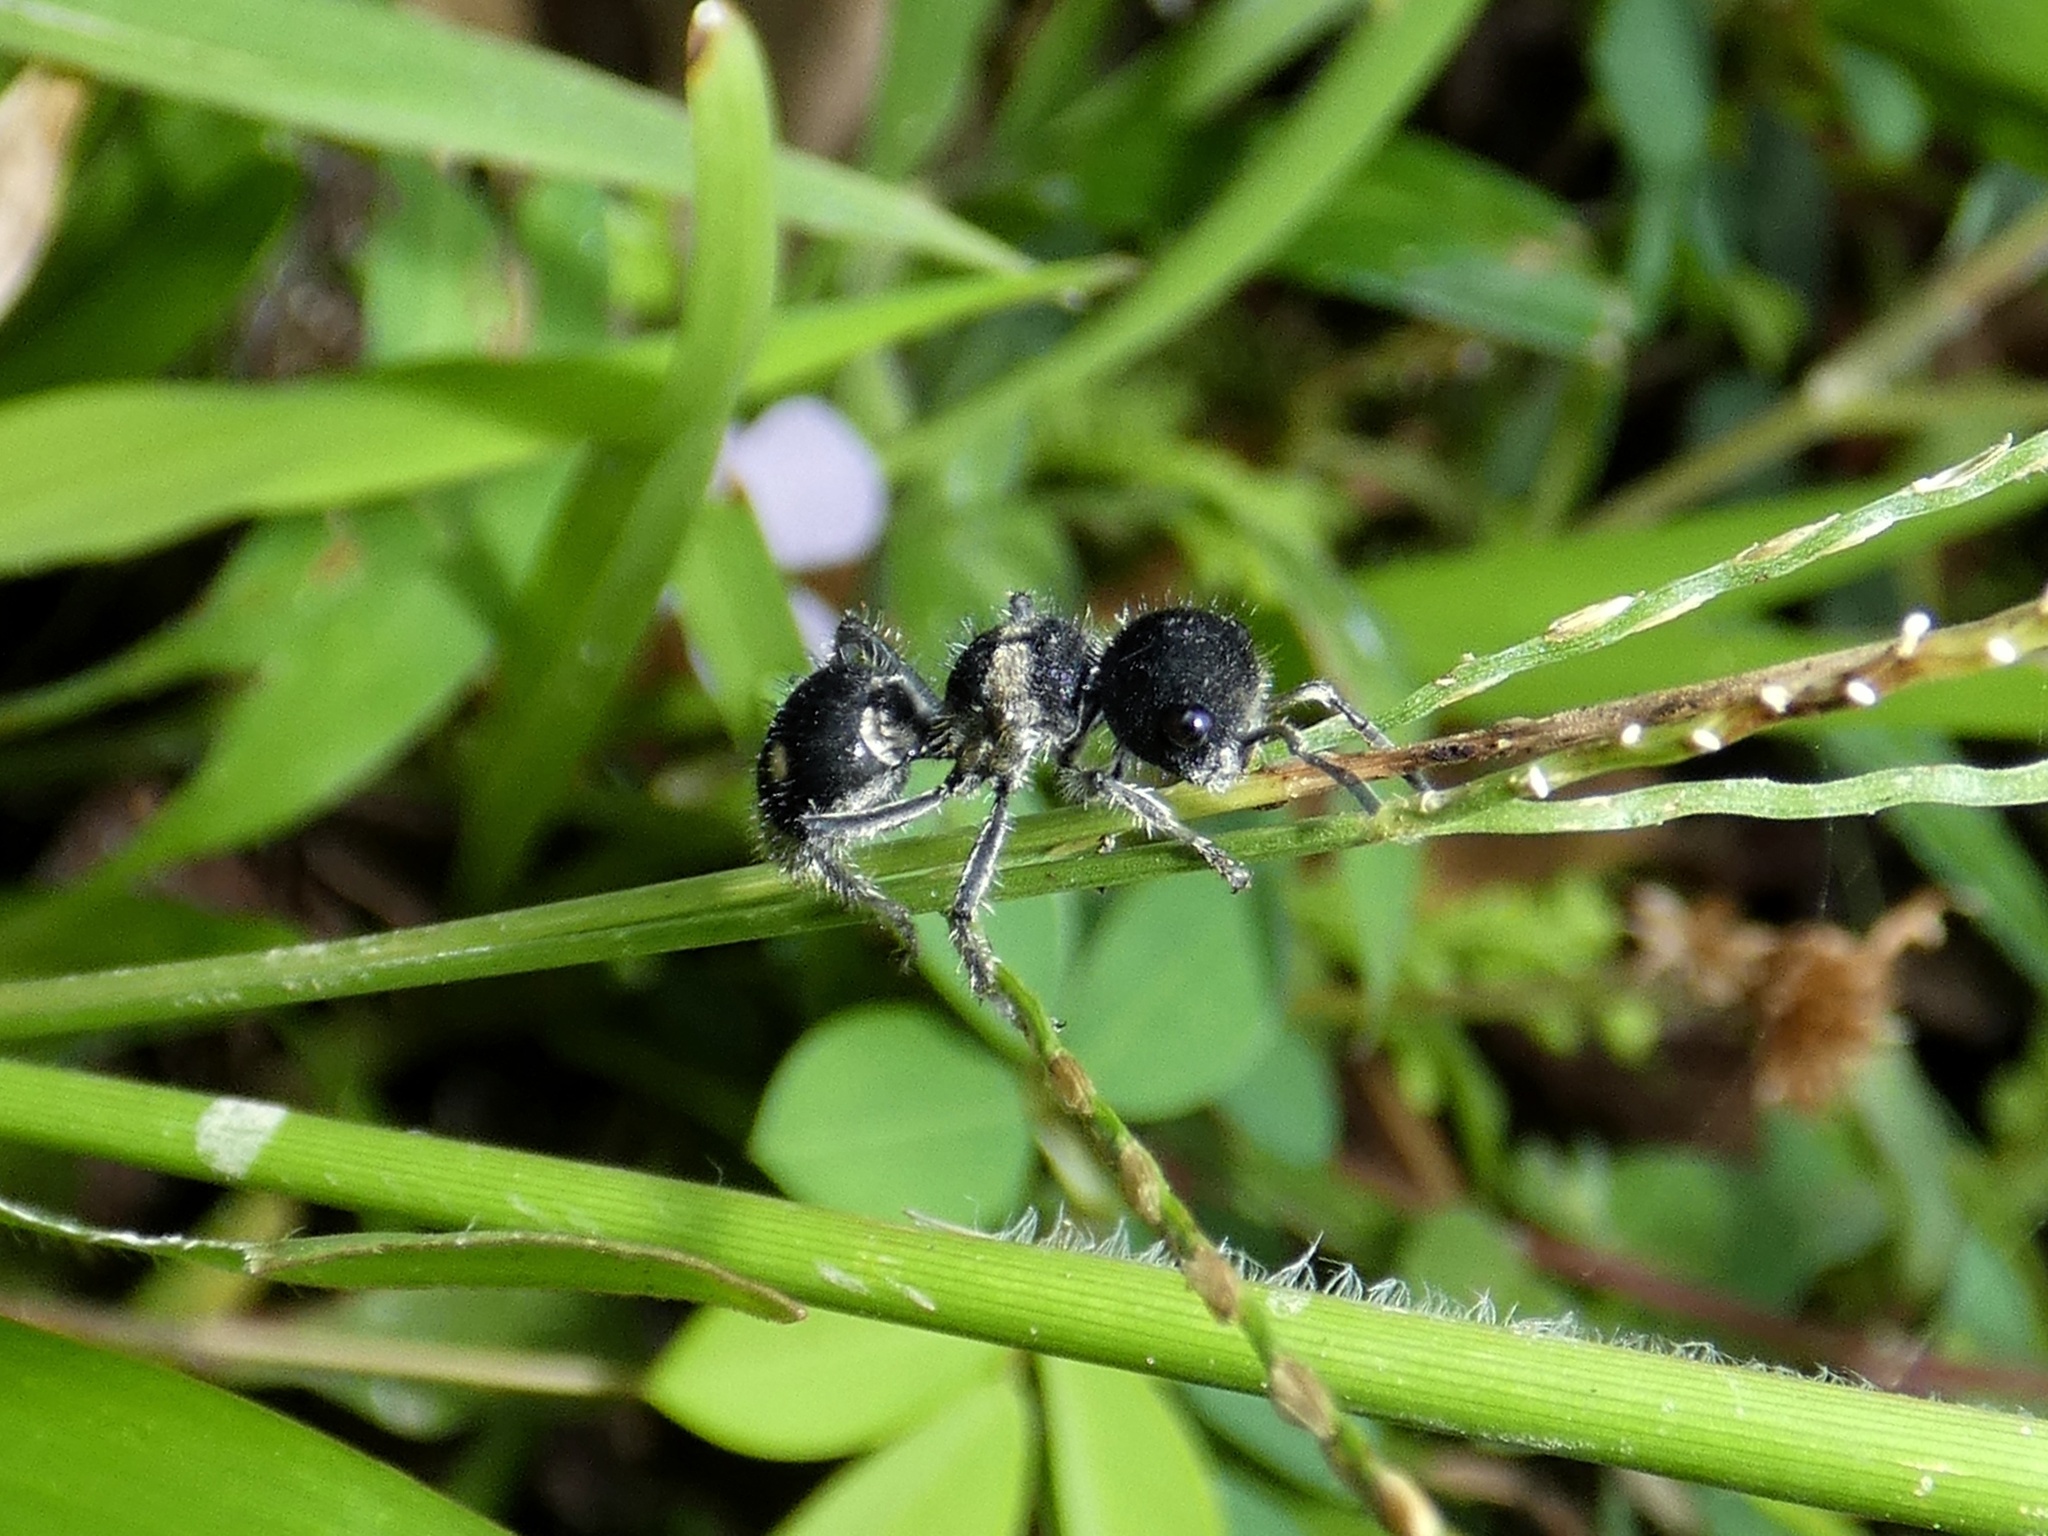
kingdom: Animalia
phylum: Arthropoda
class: Insecta
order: Hymenoptera
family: Mutillidae
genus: Pappognatha
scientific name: Pappognatha
